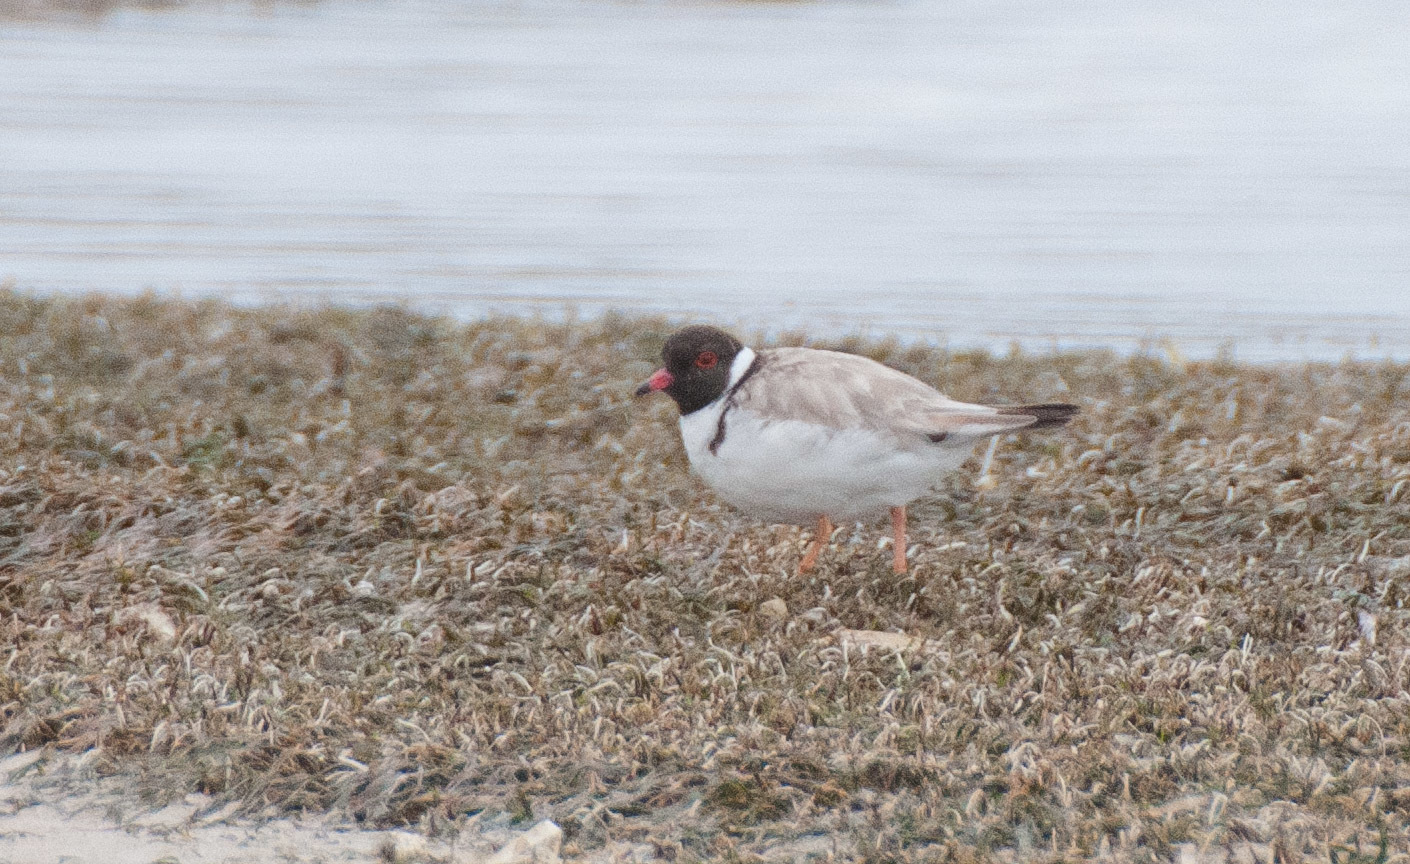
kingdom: Animalia
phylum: Chordata
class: Aves
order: Charadriiformes
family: Charadriidae
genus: Thinornis
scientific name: Thinornis cucullatus
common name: Hooded dotterel
